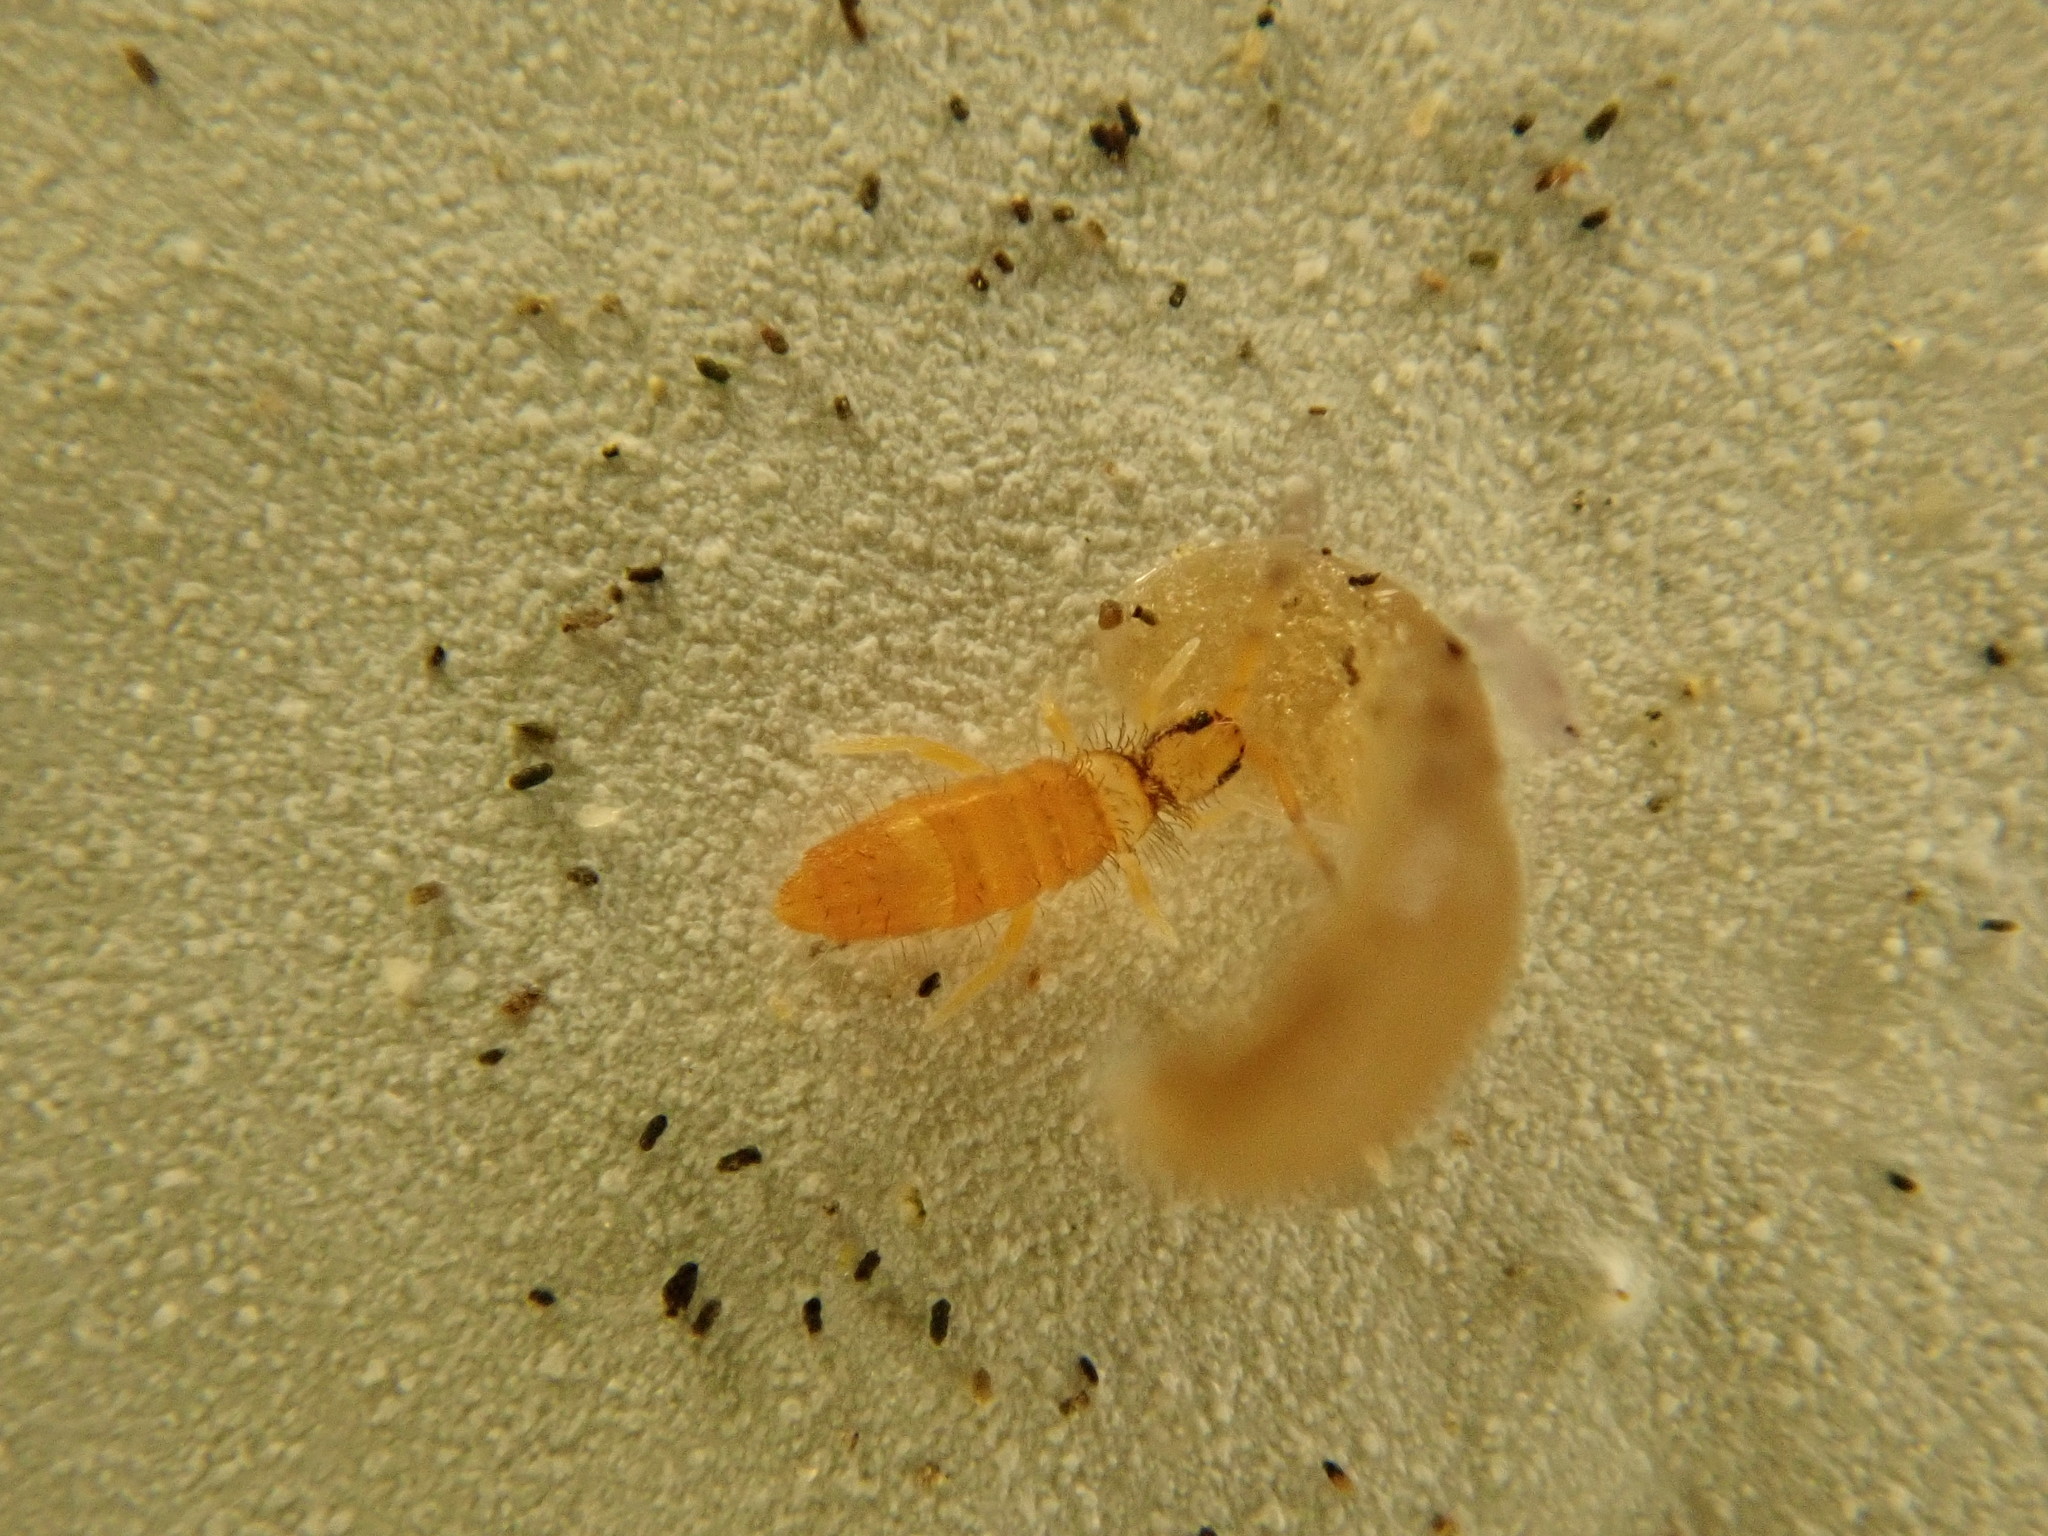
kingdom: Animalia
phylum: Arthropoda
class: Collembola
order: Entomobryomorpha
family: Entomobryidae
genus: Entomobrya
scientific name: Entomobrya atrocincta
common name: Springtail
